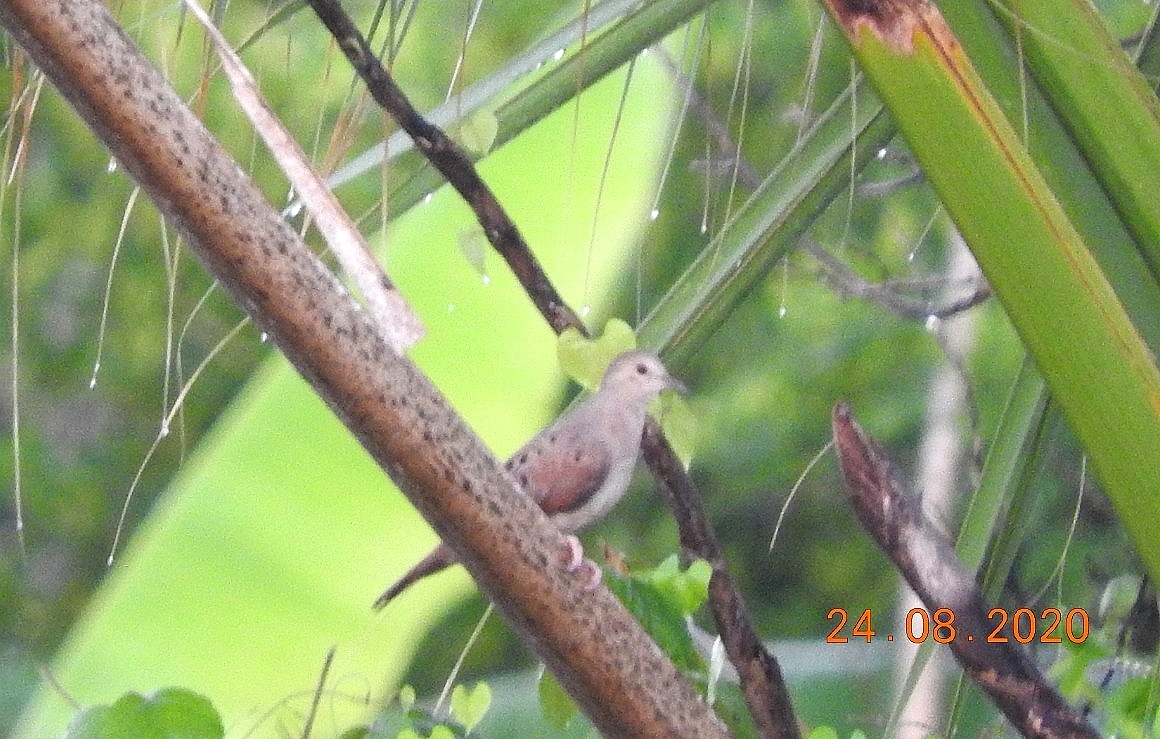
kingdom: Animalia
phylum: Chordata
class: Aves
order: Columbiformes
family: Columbidae
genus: Columbina
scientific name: Columbina talpacoti
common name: Ruddy ground dove
